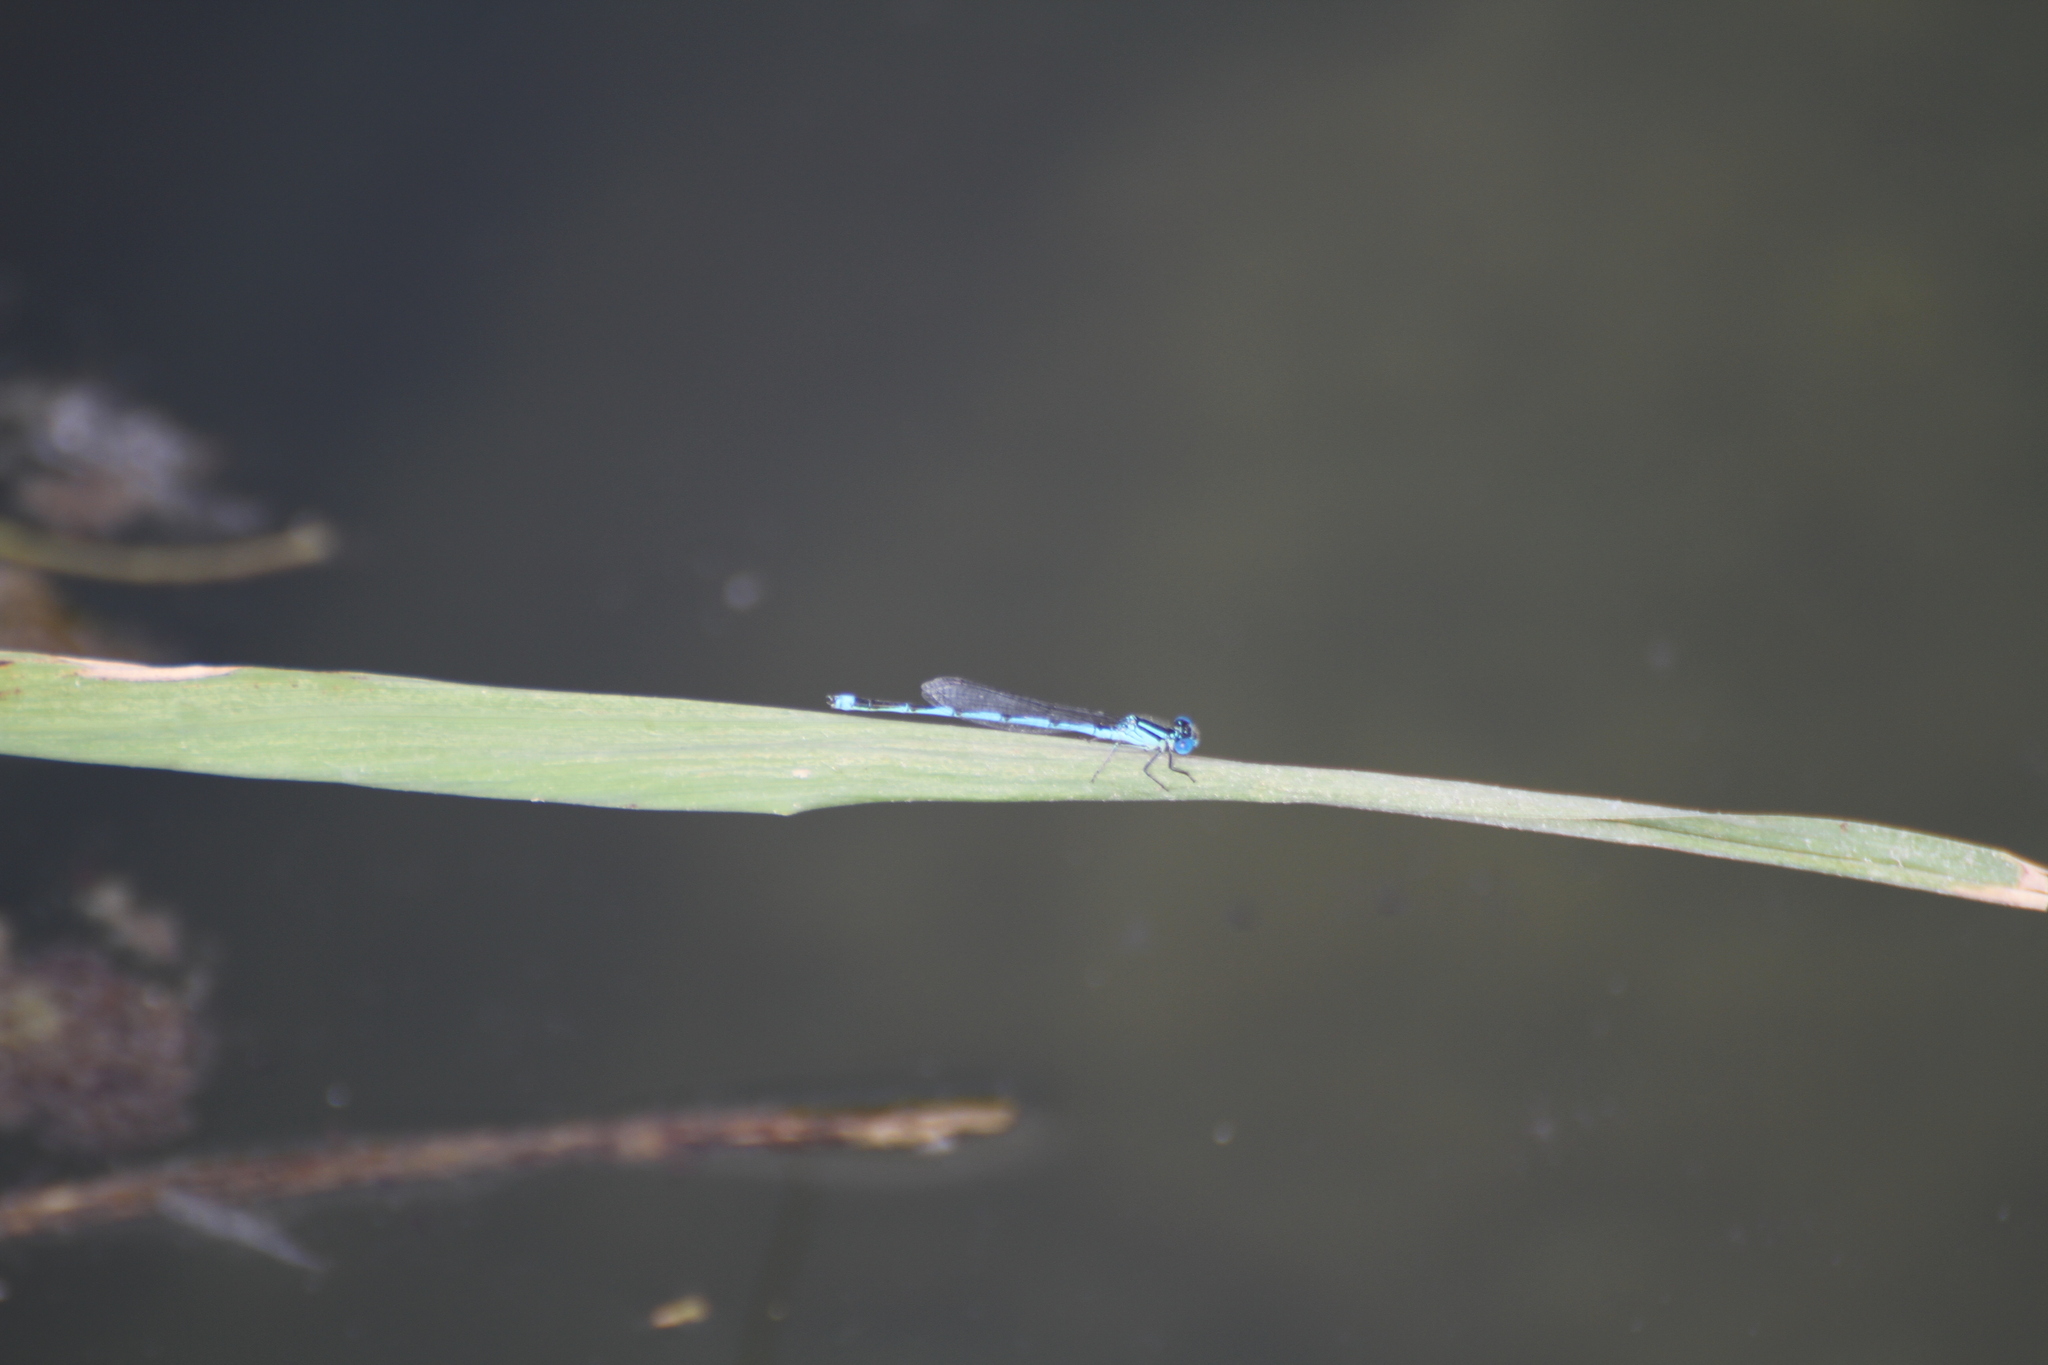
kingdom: Animalia
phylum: Arthropoda
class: Insecta
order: Odonata
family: Coenagrionidae
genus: Erythromma
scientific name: Erythromma lindenii
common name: Blue-eye
